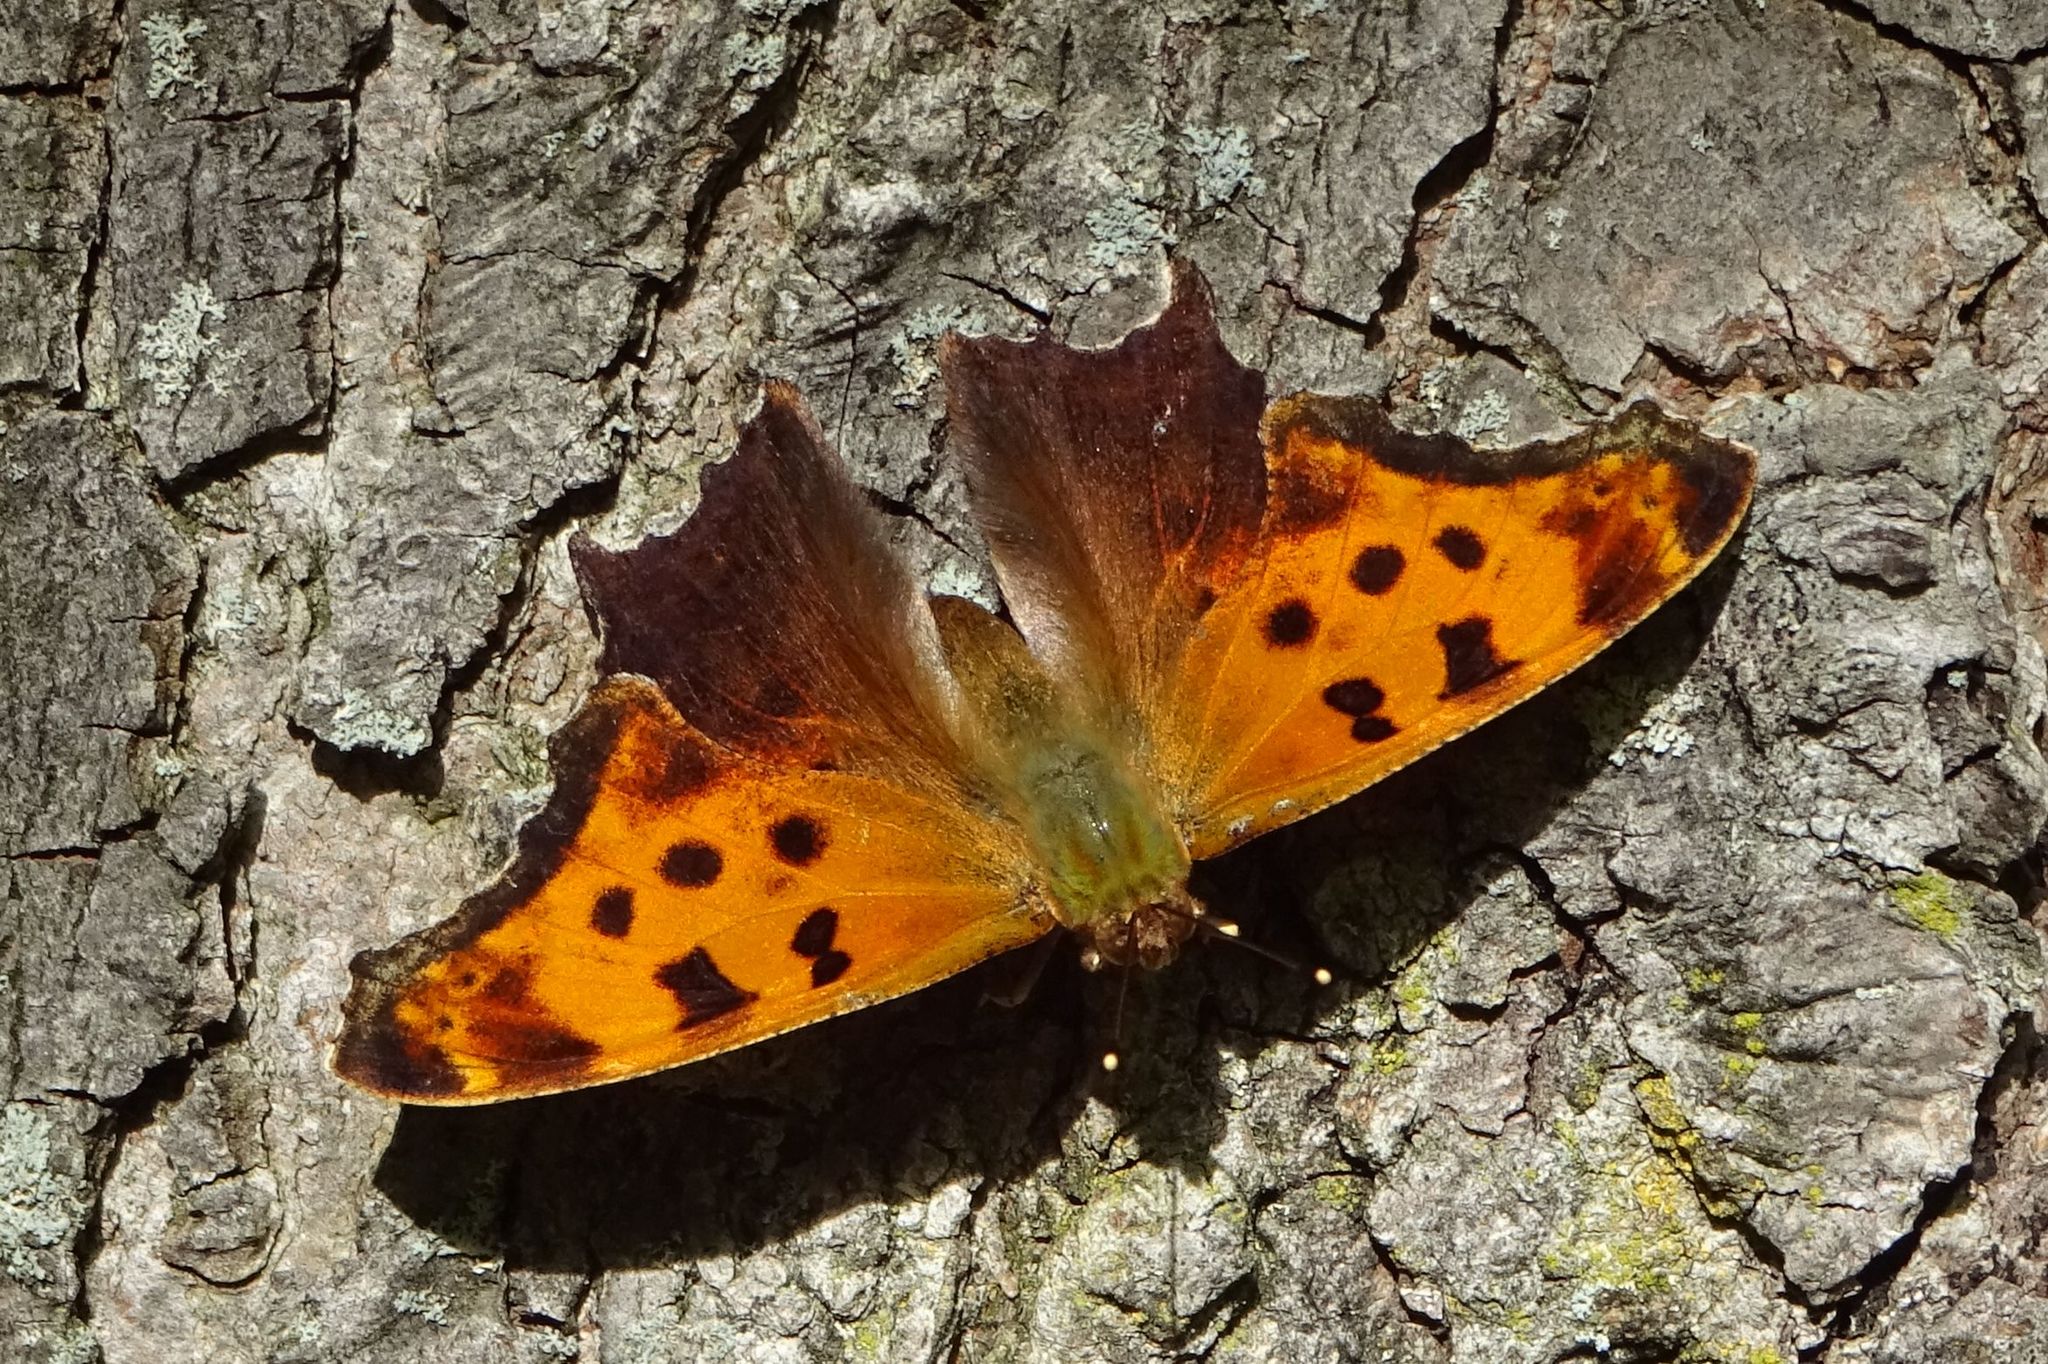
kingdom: Animalia
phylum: Arthropoda
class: Insecta
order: Lepidoptera
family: Nymphalidae
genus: Polygonia
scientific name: Polygonia comma
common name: Eastern comma
